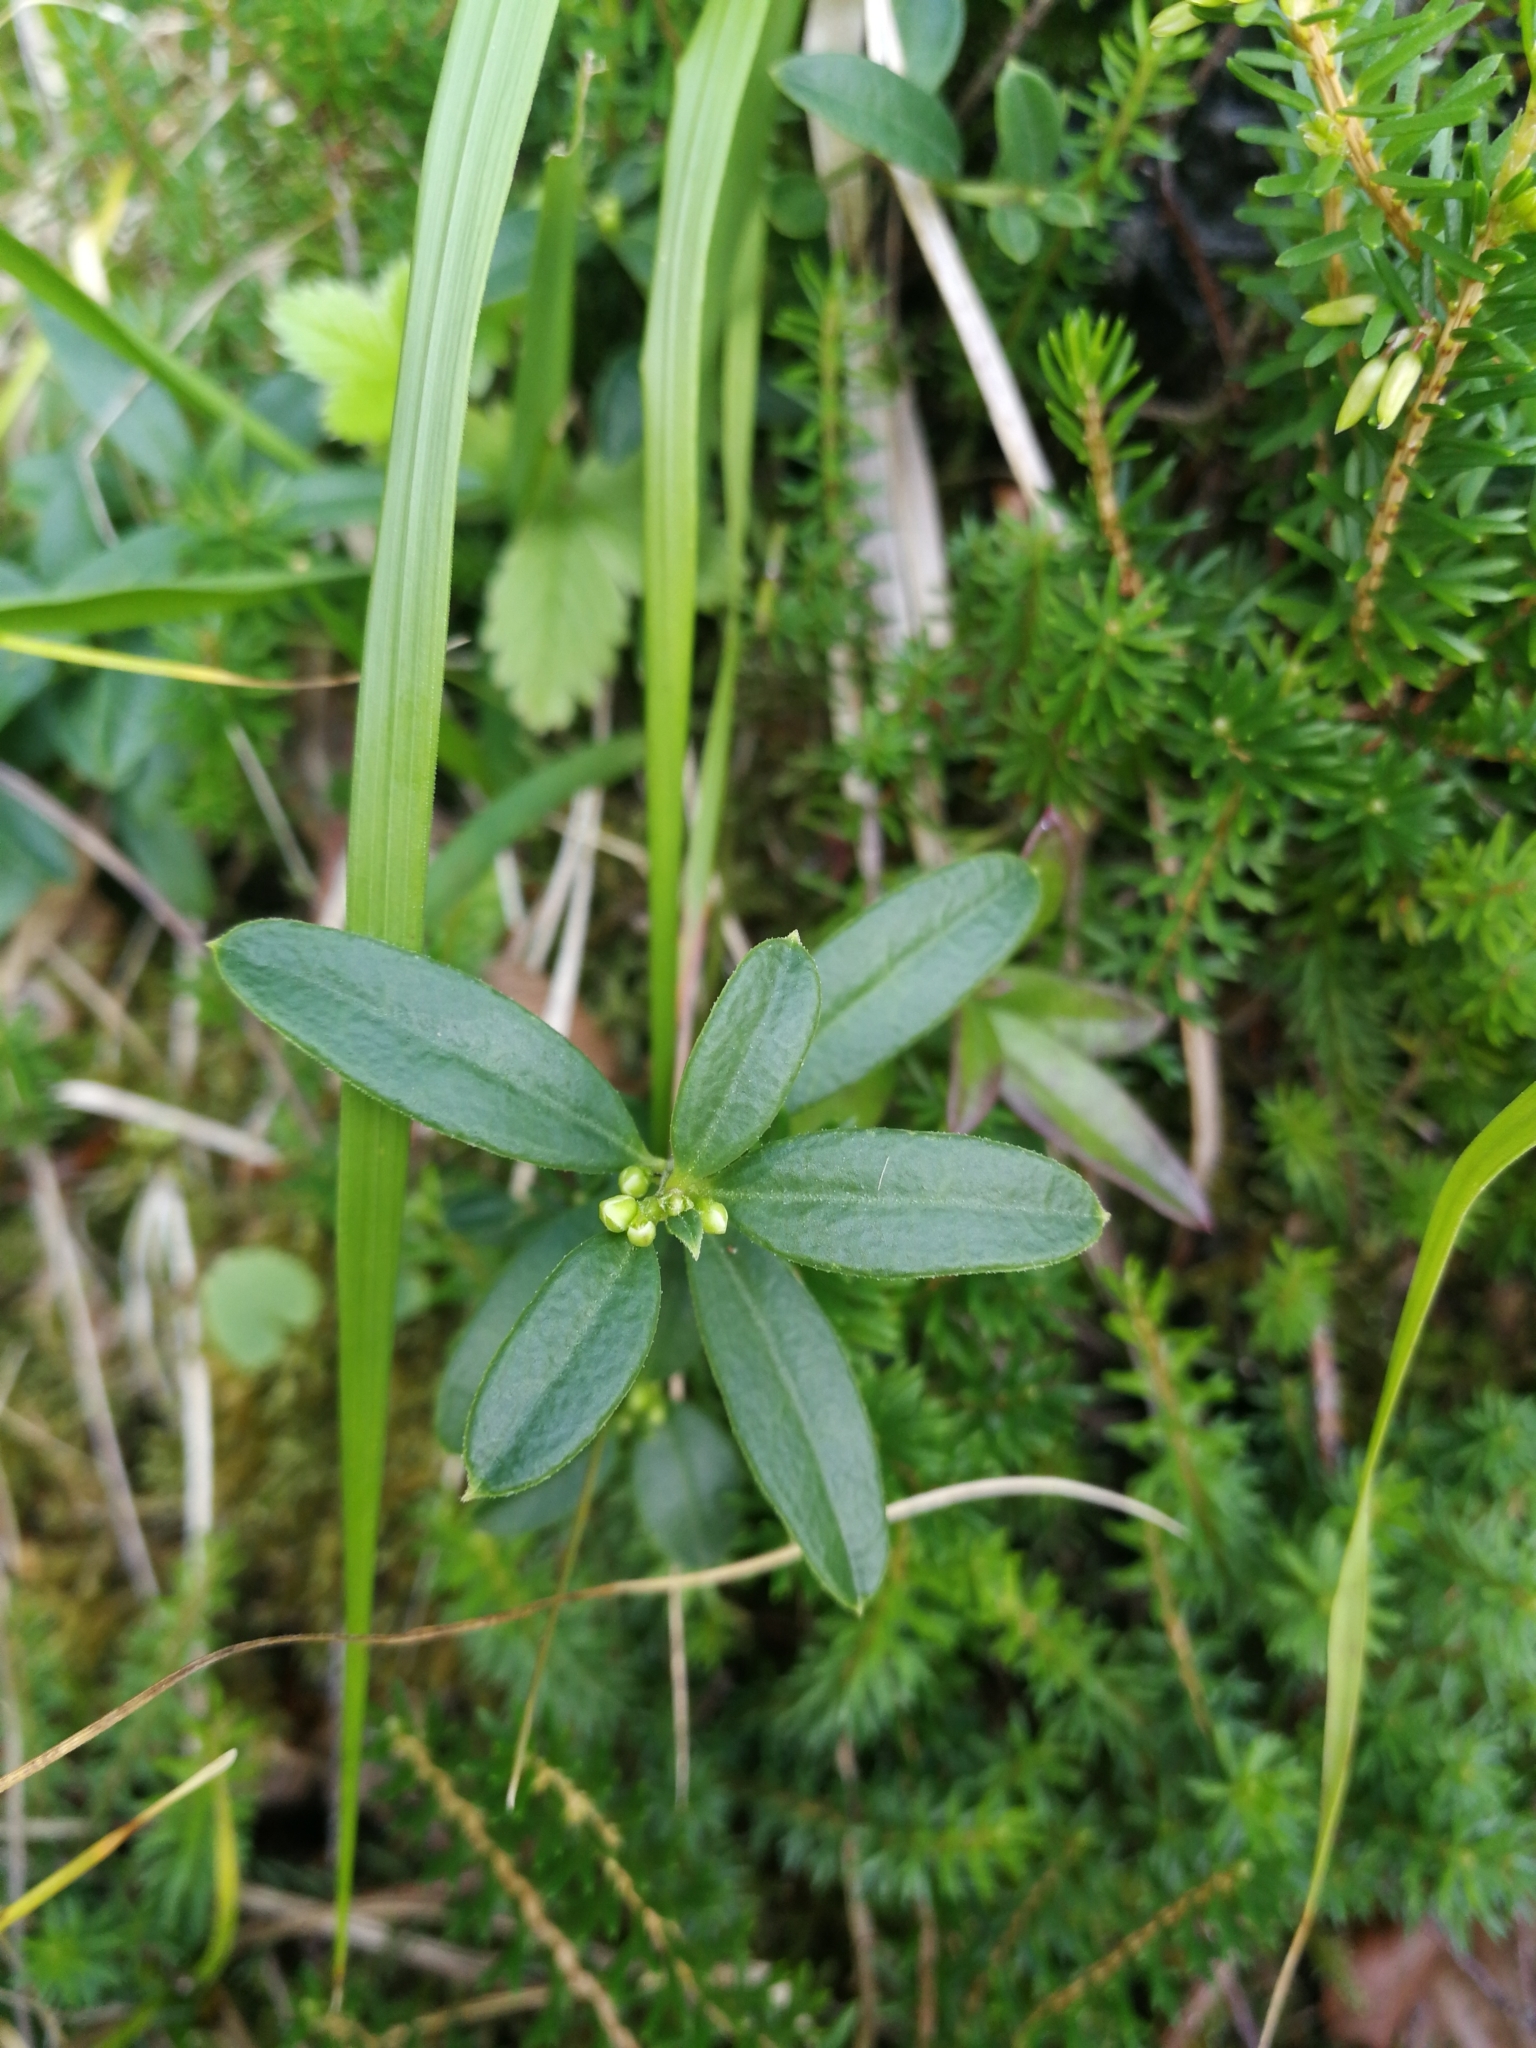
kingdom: Plantae
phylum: Tracheophyta
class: Magnoliopsida
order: Fabales
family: Polygalaceae
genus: Polygaloides
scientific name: Polygaloides chamaebuxus
